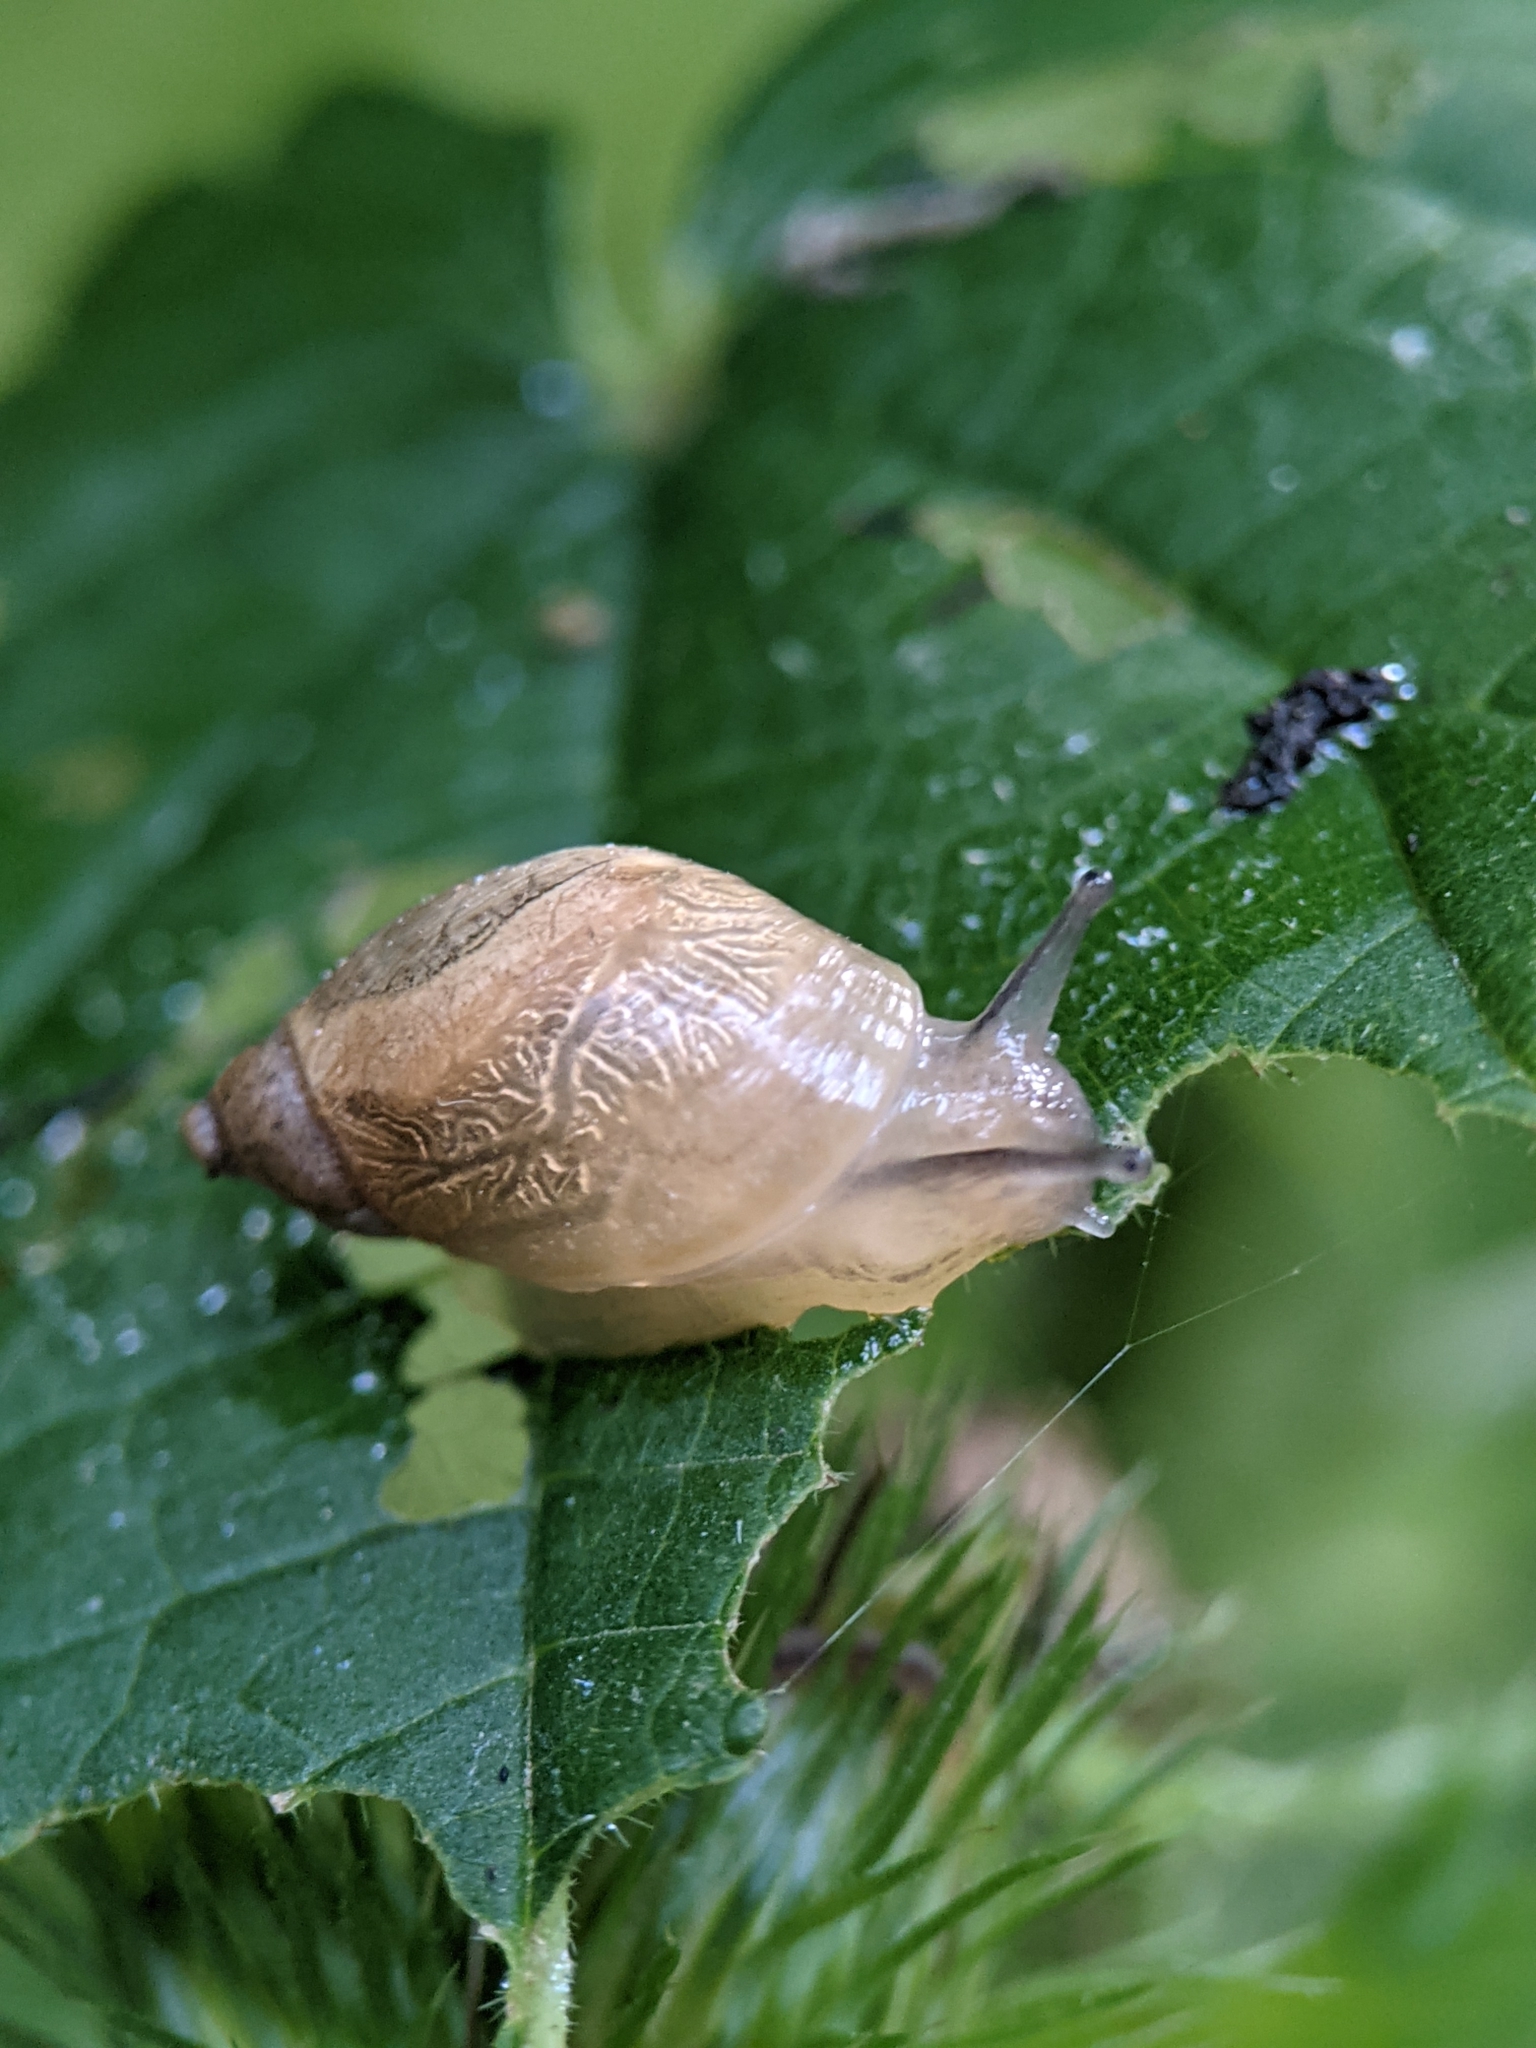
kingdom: Animalia
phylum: Mollusca
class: Gastropoda
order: Stylommatophora
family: Succineidae
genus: Succinea
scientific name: Succinea putris
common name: European ambersnail
